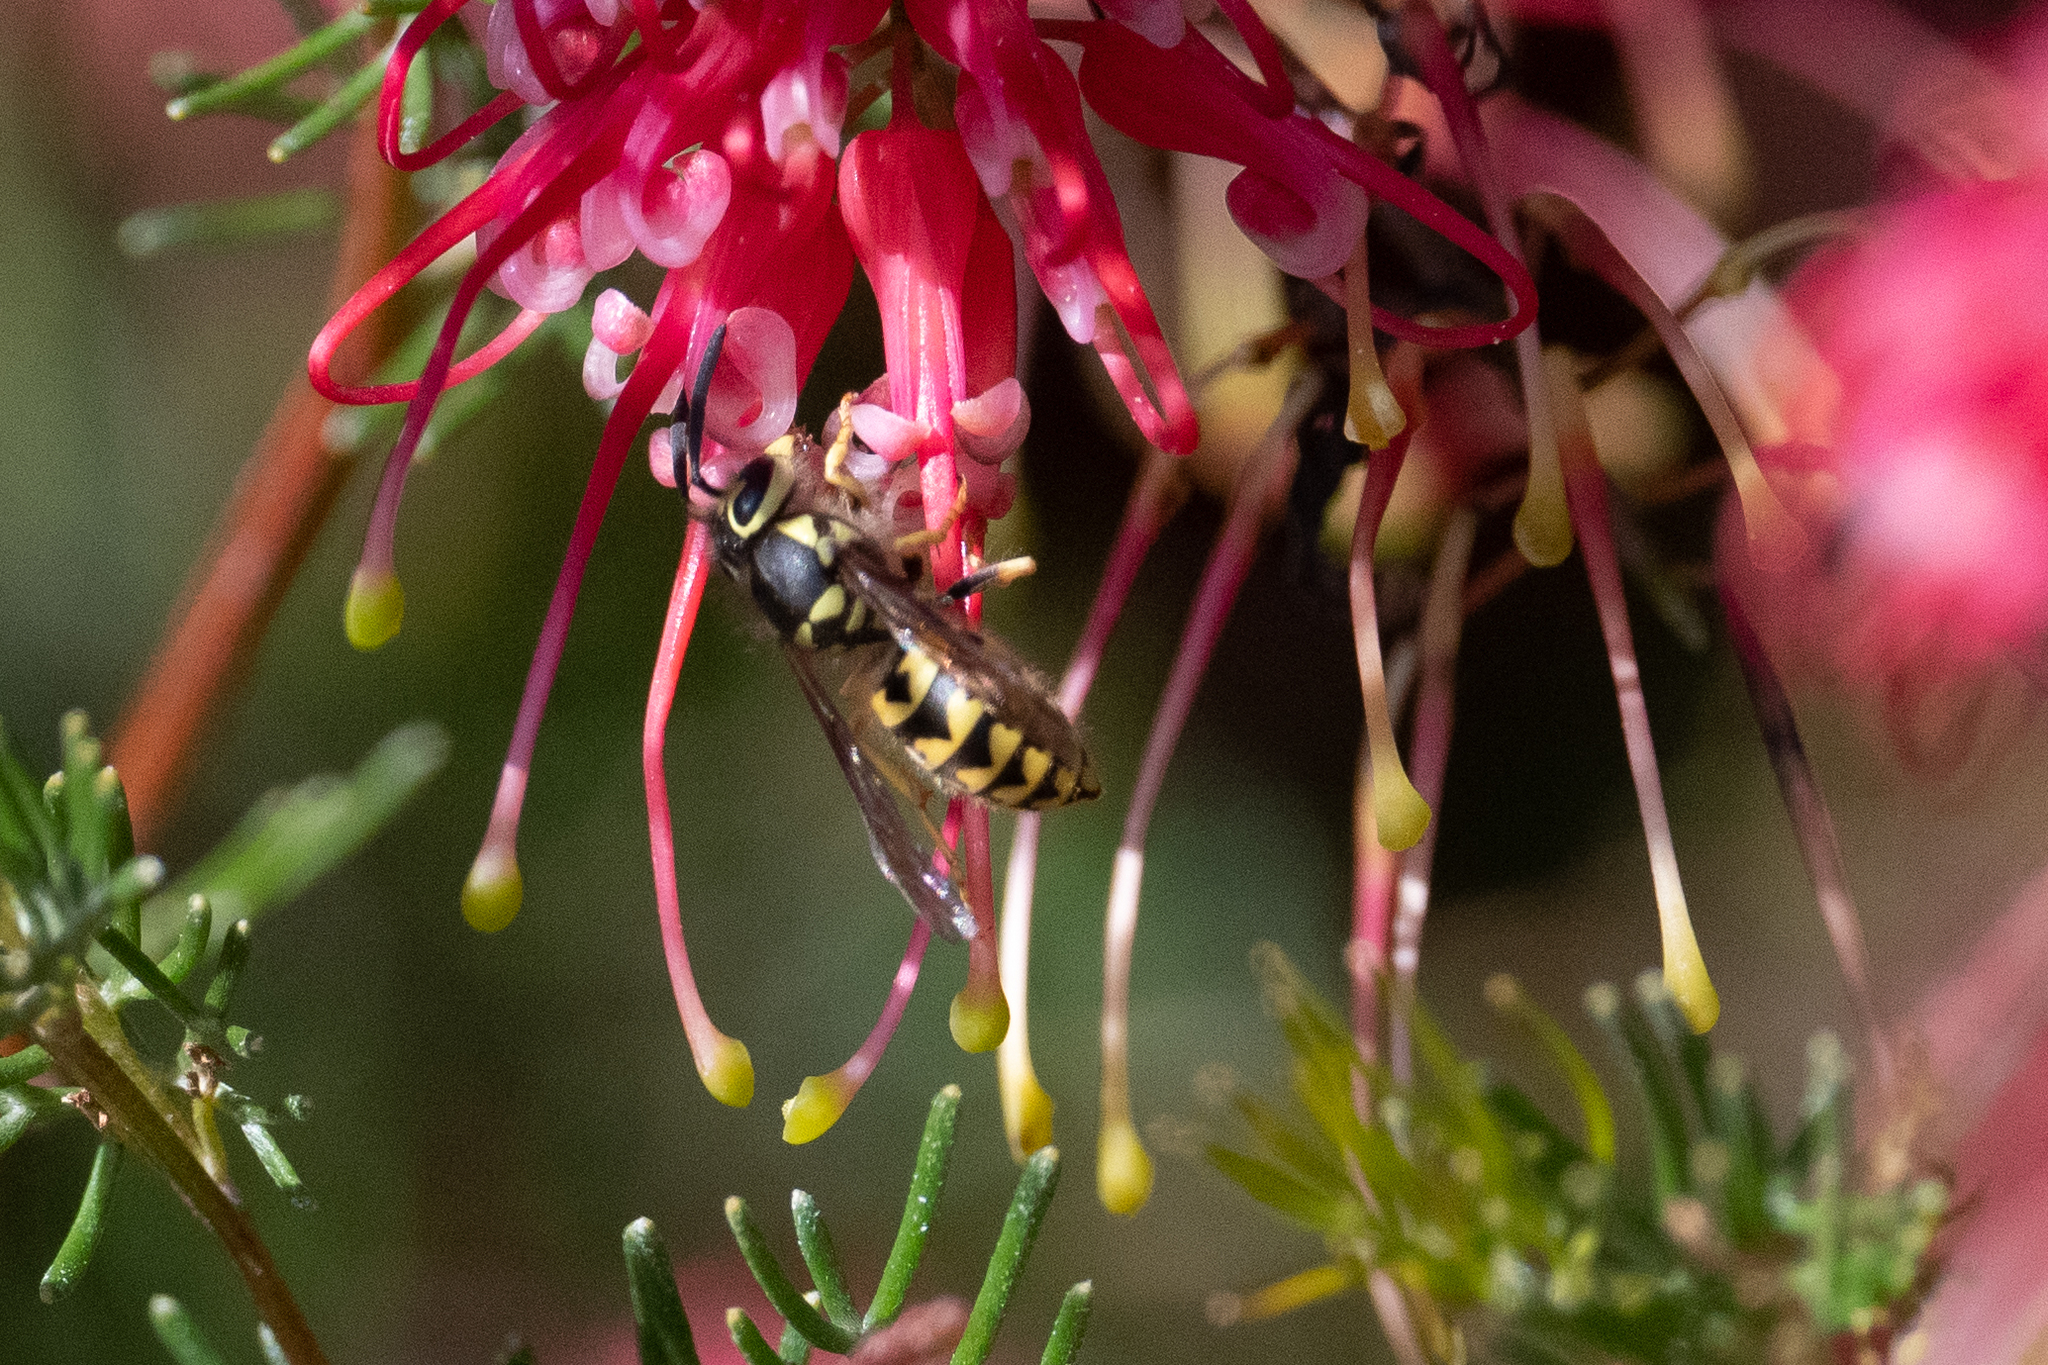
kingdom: Animalia
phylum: Arthropoda
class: Insecta
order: Hymenoptera
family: Vespidae
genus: Vespula
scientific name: Vespula pensylvanica
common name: Western yellowjacket
